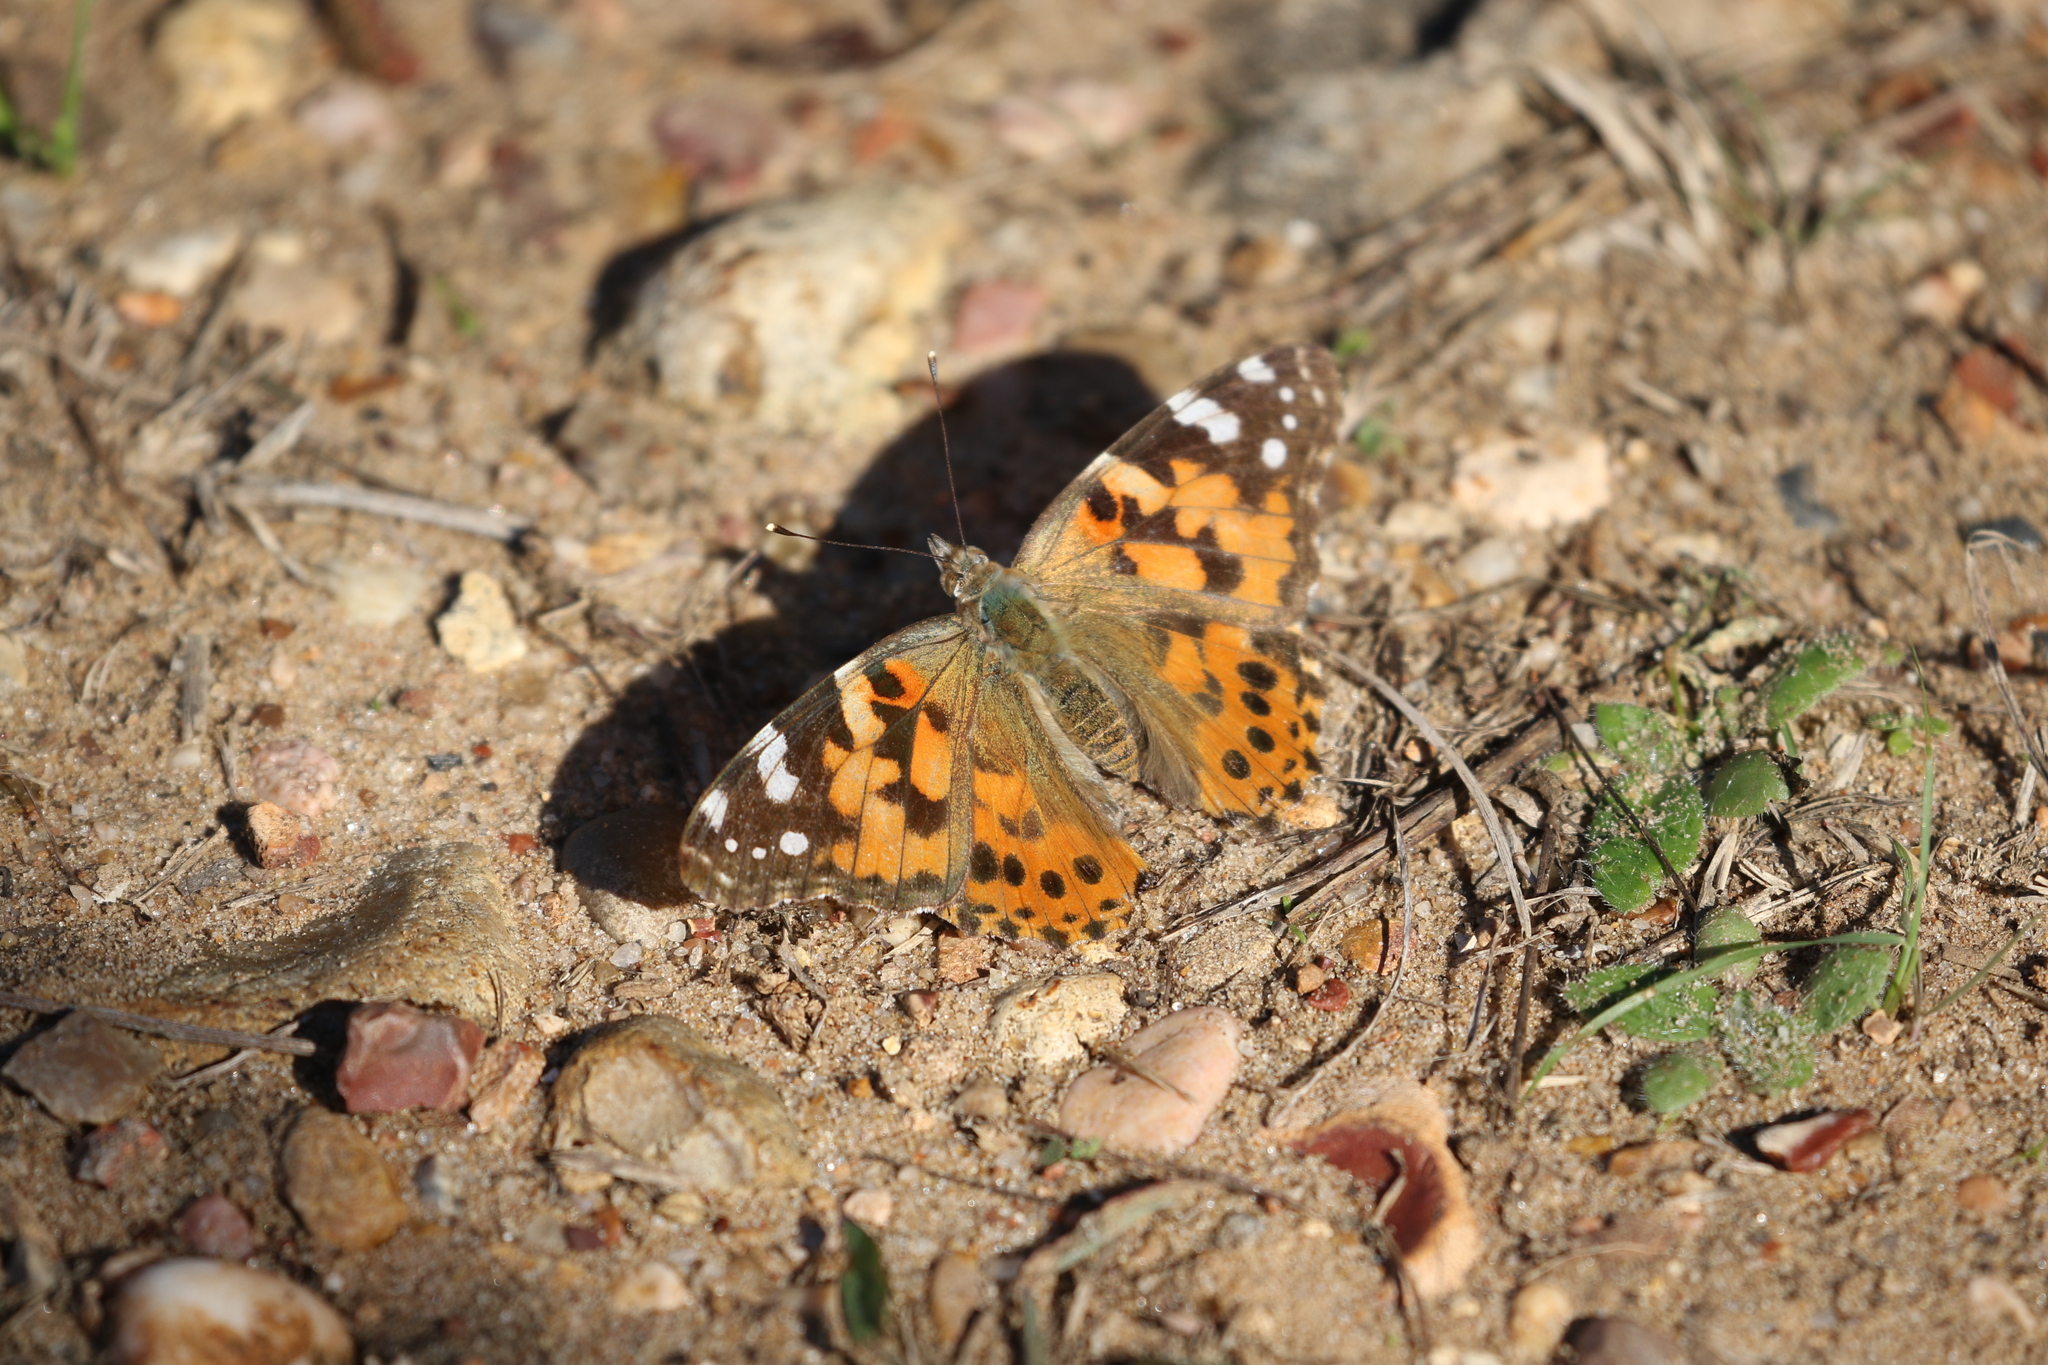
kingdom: Animalia
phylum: Arthropoda
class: Insecta
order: Lepidoptera
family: Nymphalidae
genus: Vanessa
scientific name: Vanessa cardui
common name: Painted lady
